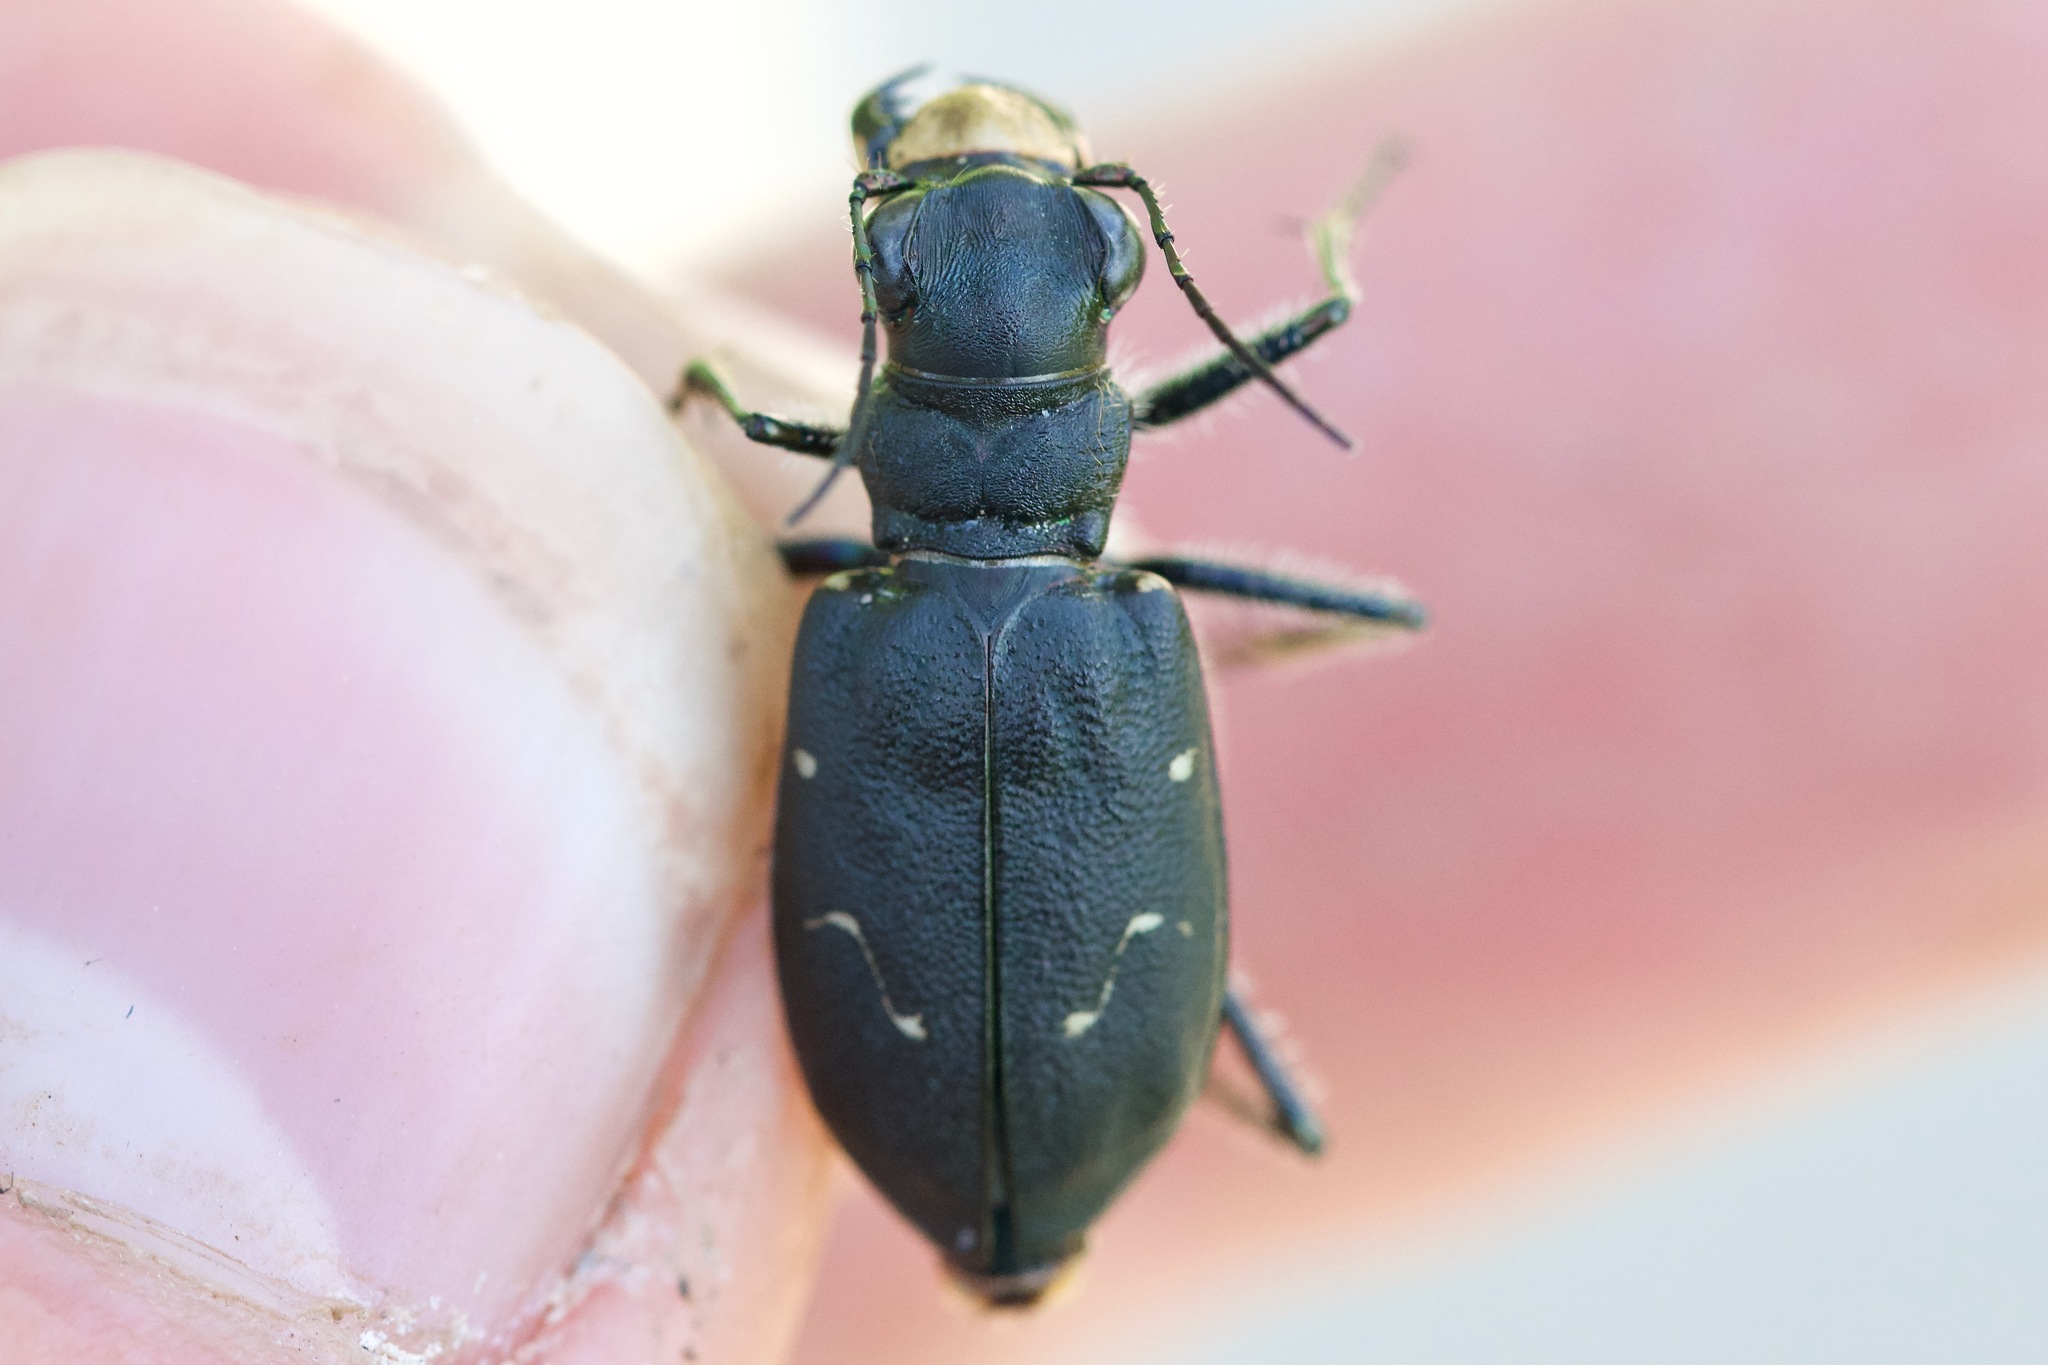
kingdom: Animalia
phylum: Arthropoda
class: Insecta
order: Coleoptera
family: Carabidae
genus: Cicindela
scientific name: Cicindela longilabris
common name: Boreal long-lipped tiger beetle
